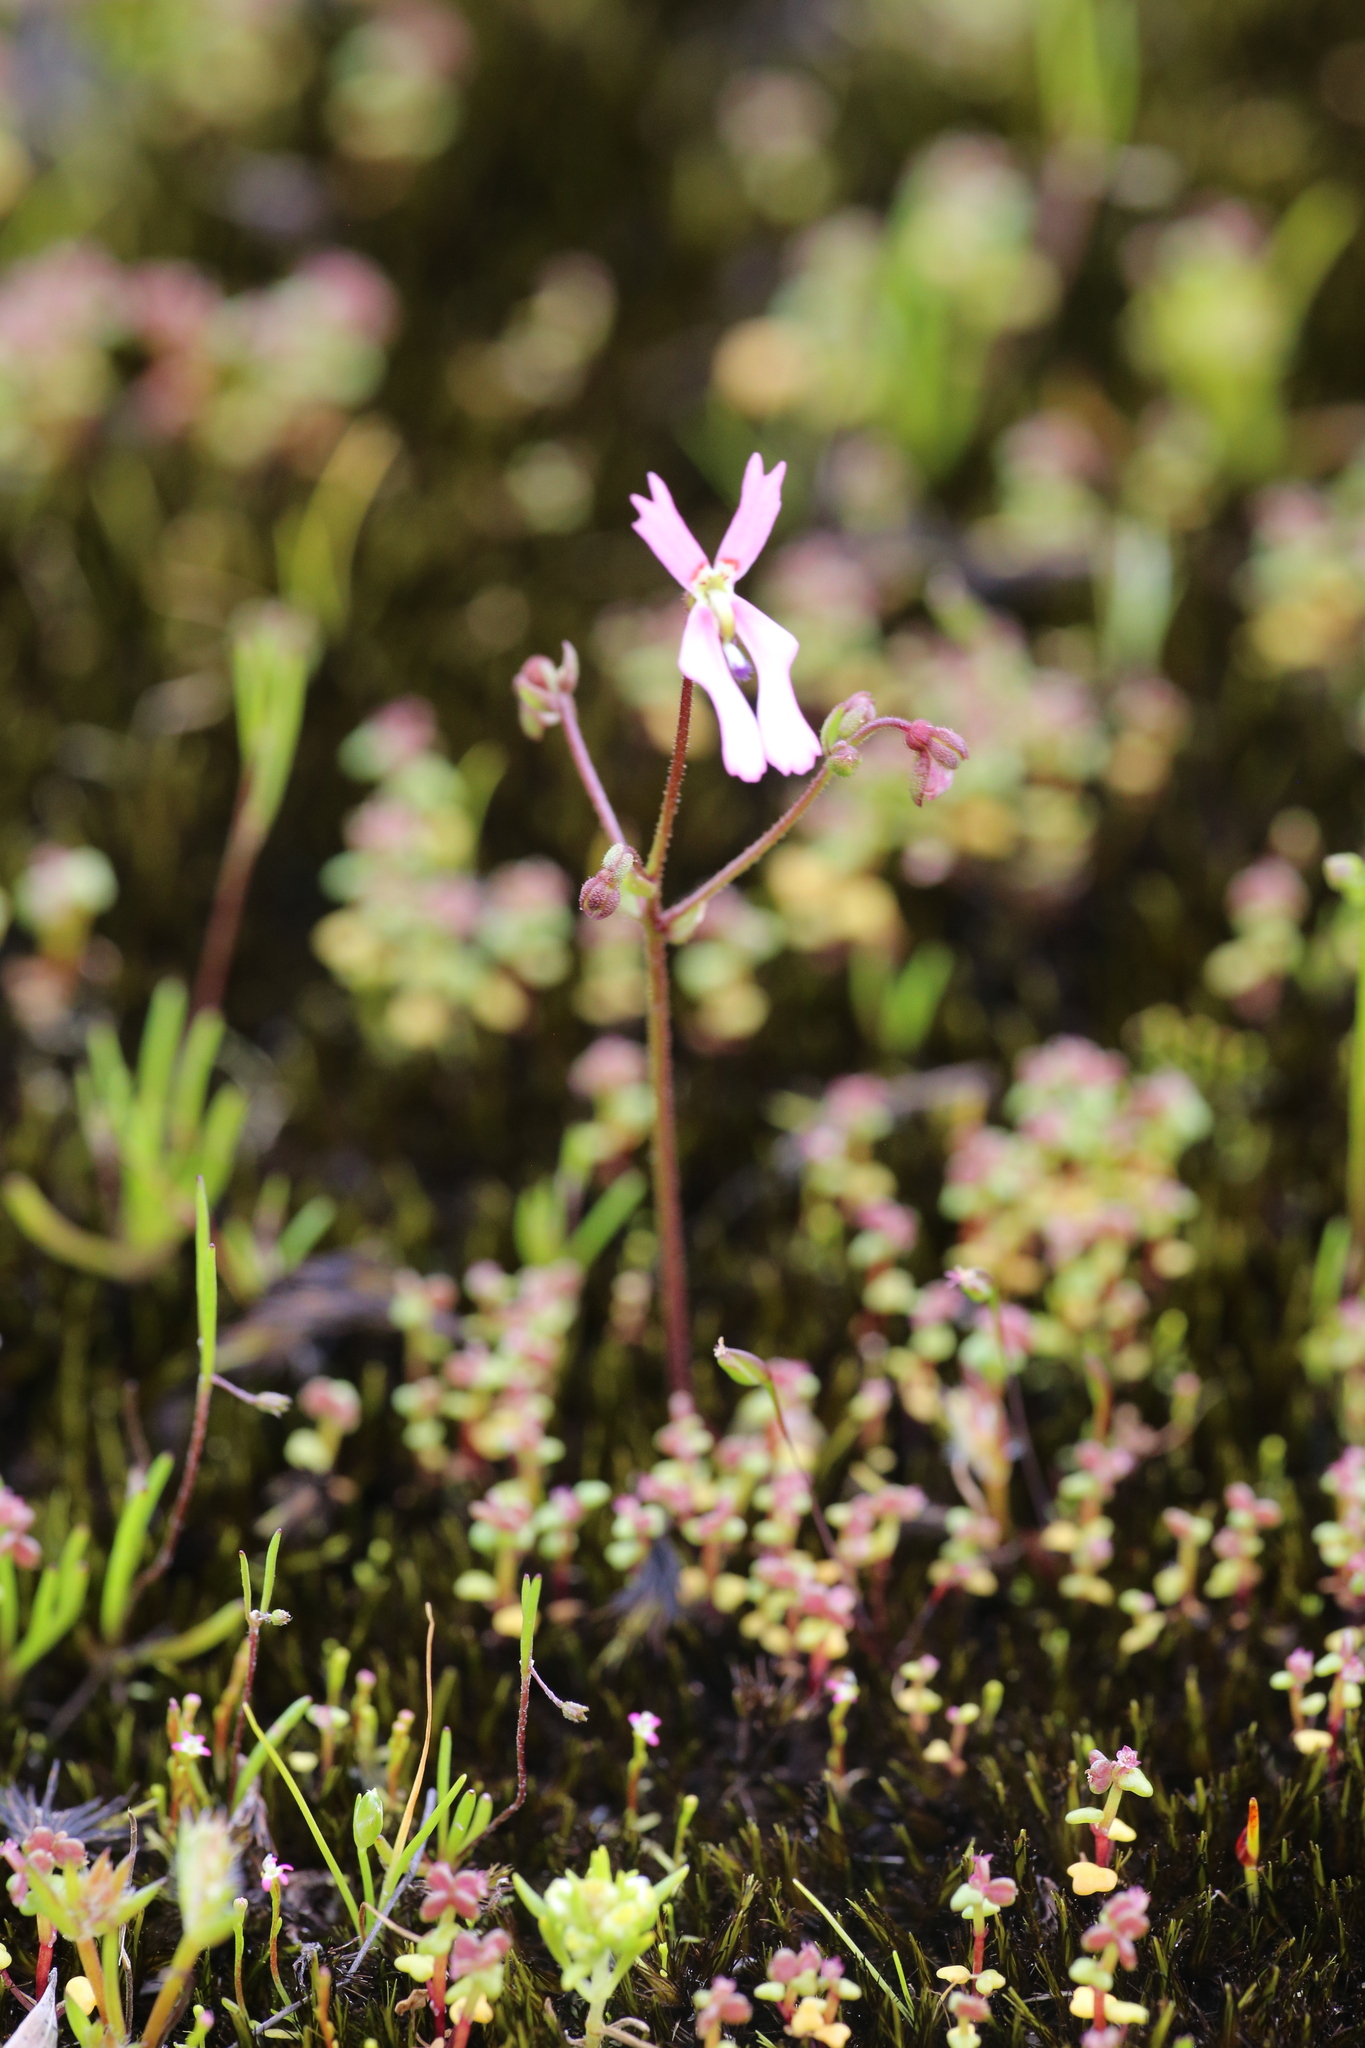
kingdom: Plantae
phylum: Tracheophyta
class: Magnoliopsida
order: Asterales
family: Stylidiaceae
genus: Stylidium
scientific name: Stylidium ecorne
